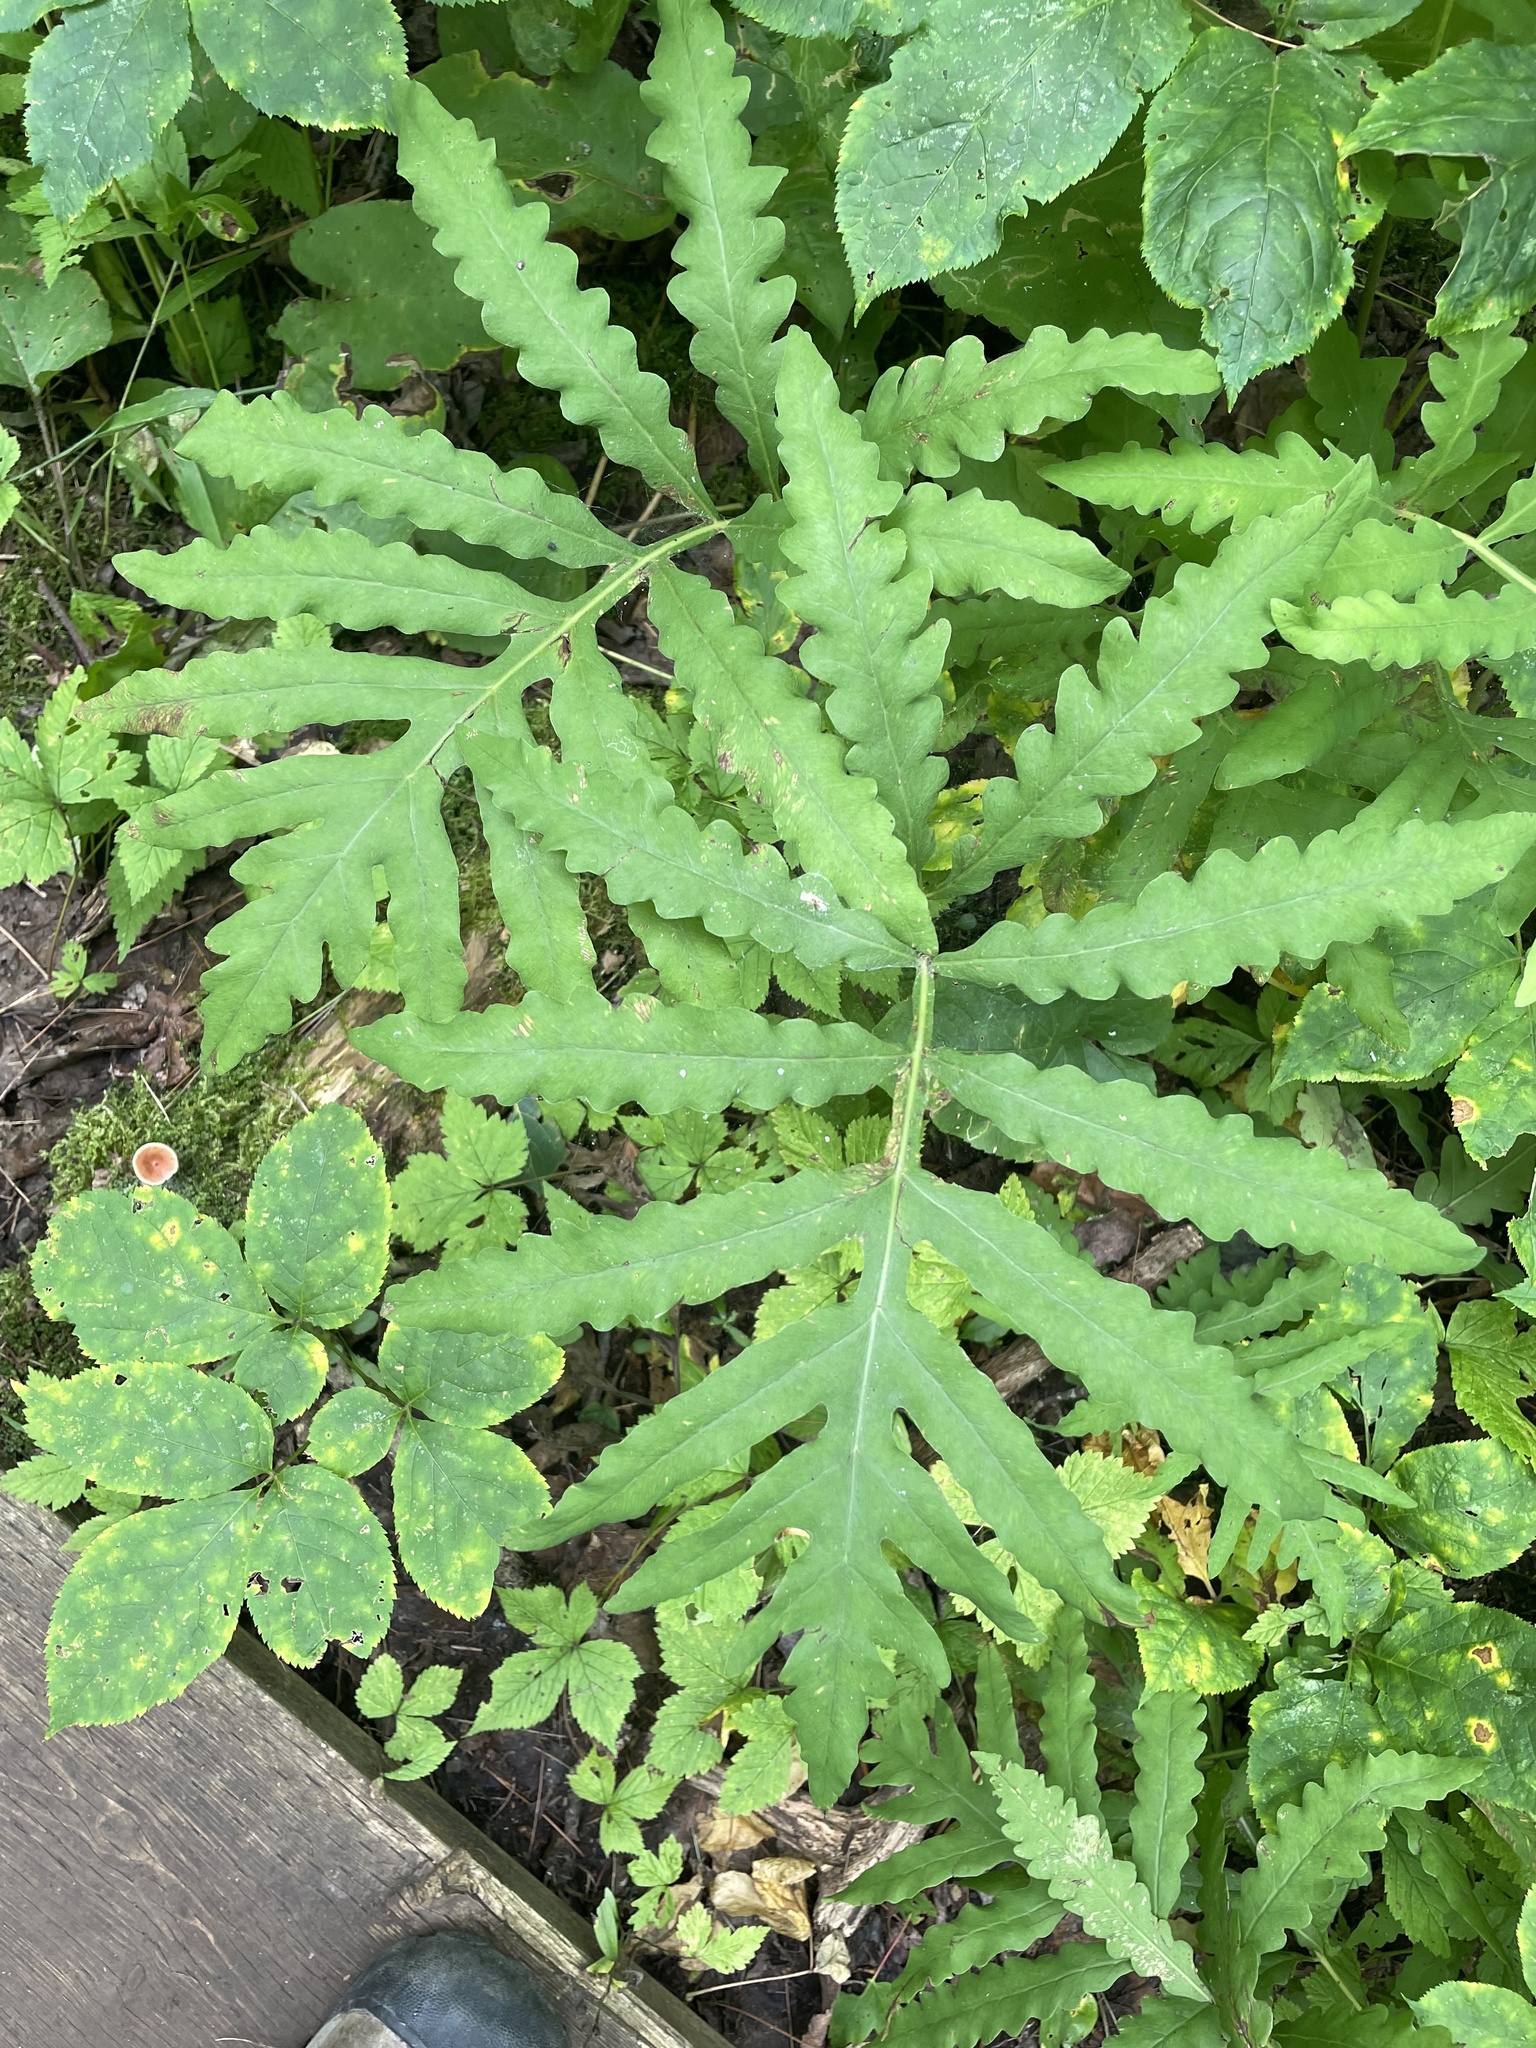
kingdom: Plantae
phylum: Tracheophyta
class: Polypodiopsida
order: Polypodiales
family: Onocleaceae
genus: Onoclea
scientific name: Onoclea sensibilis
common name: Sensitive fern
